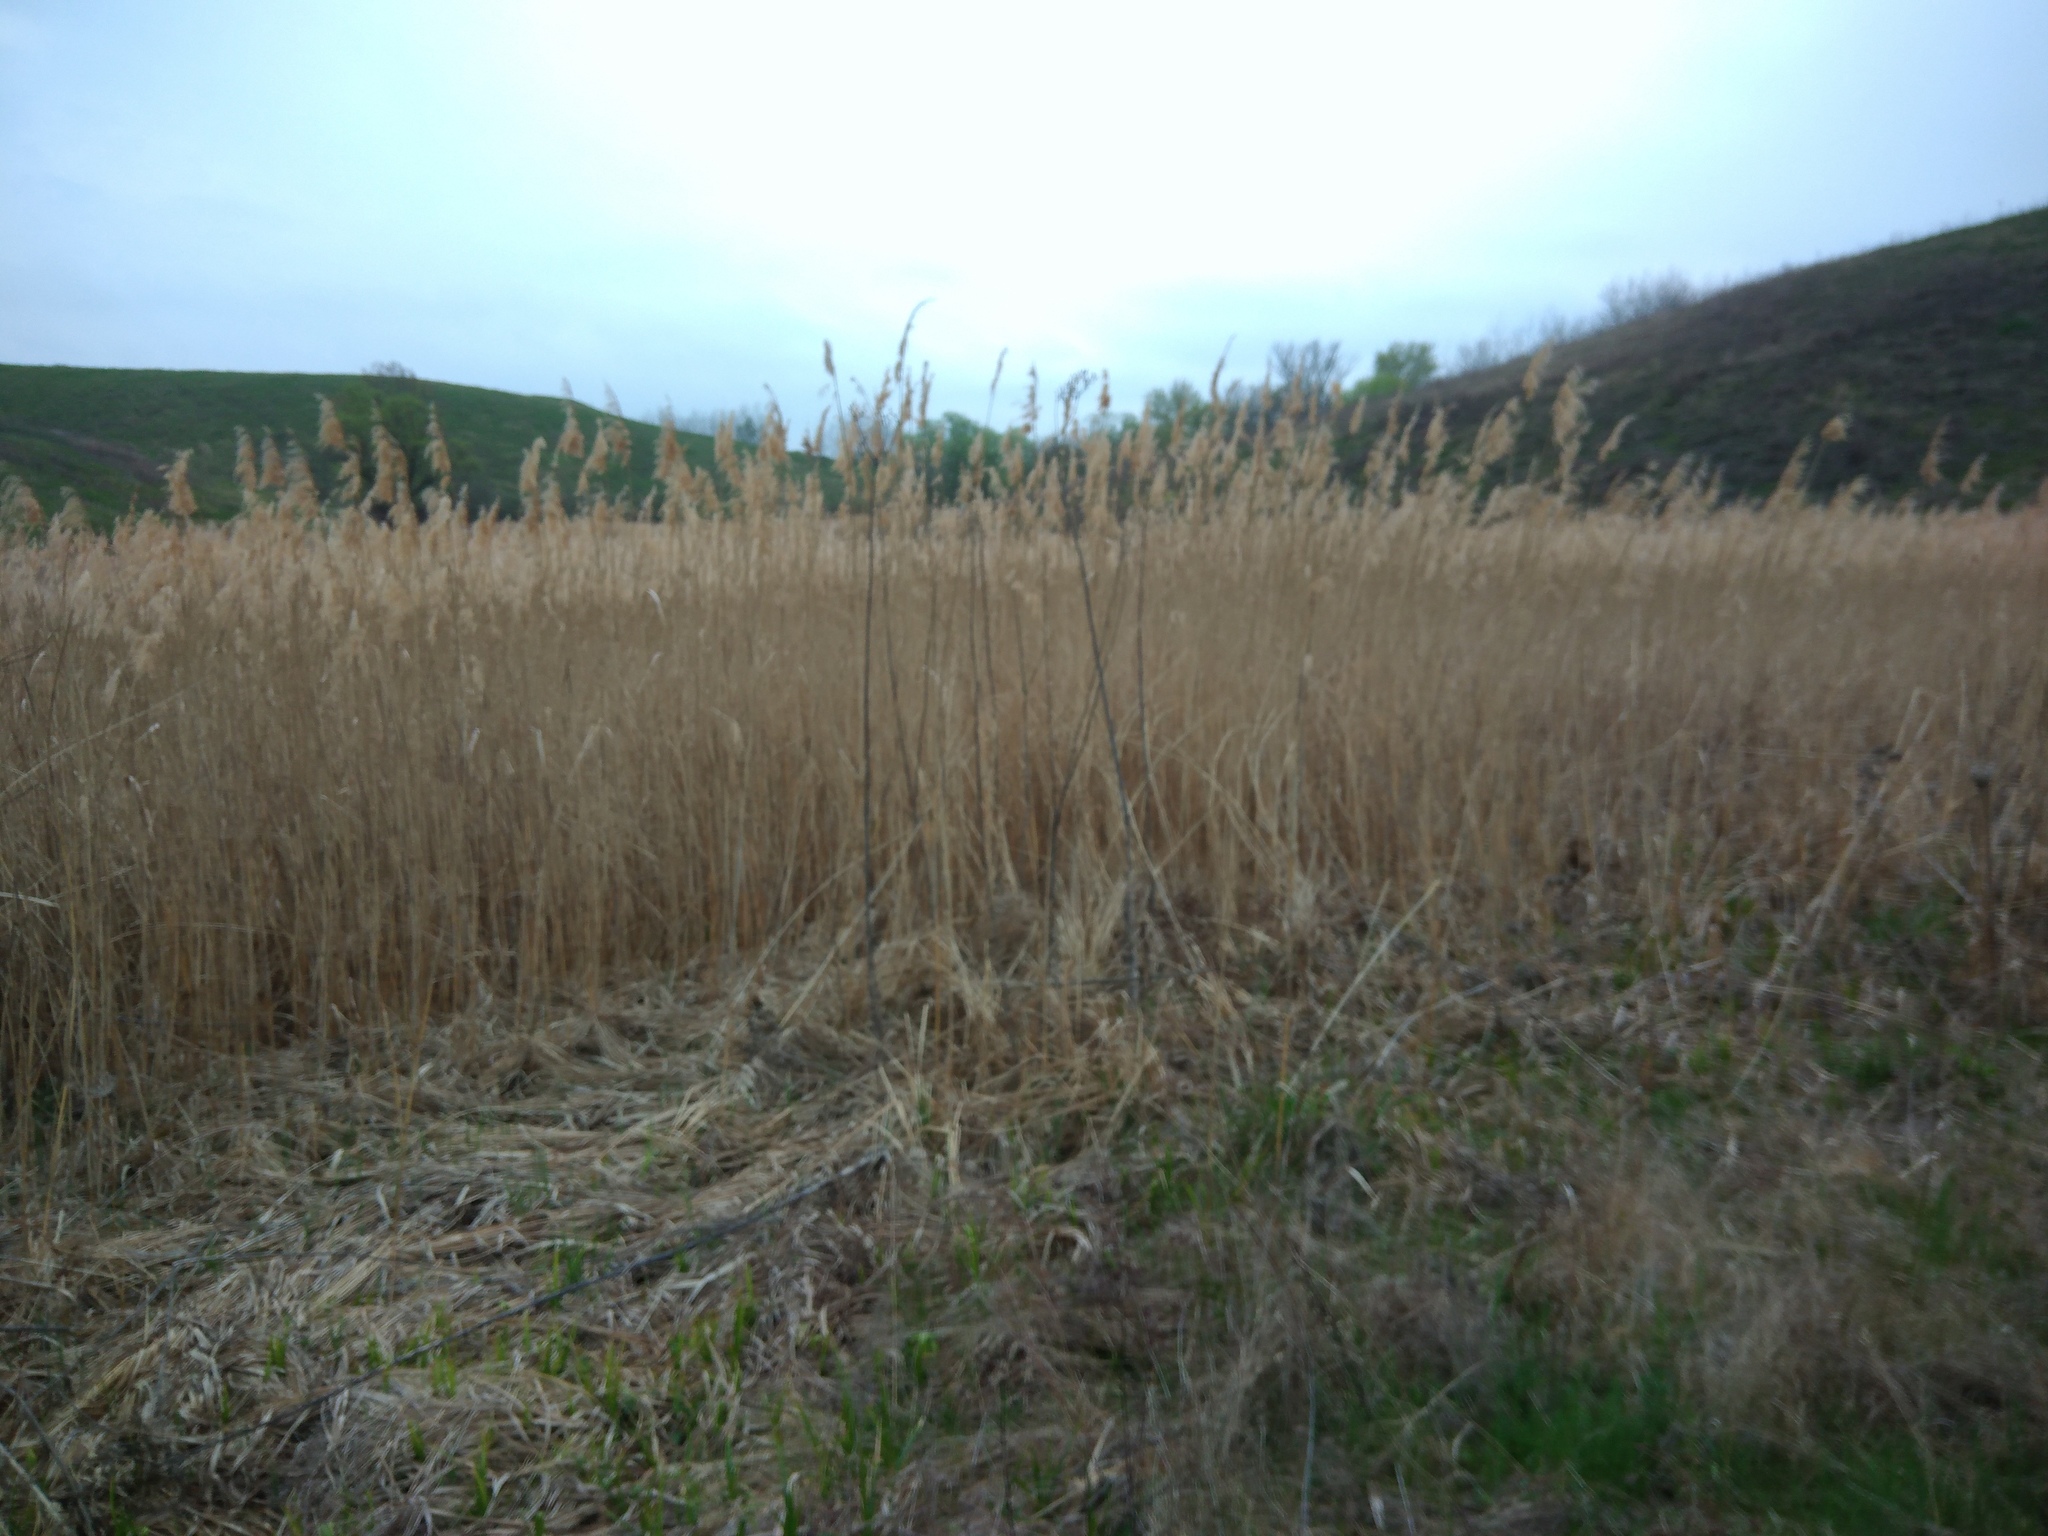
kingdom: Plantae
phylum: Tracheophyta
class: Liliopsida
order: Poales
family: Poaceae
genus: Phragmites
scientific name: Phragmites australis
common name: Common reed
